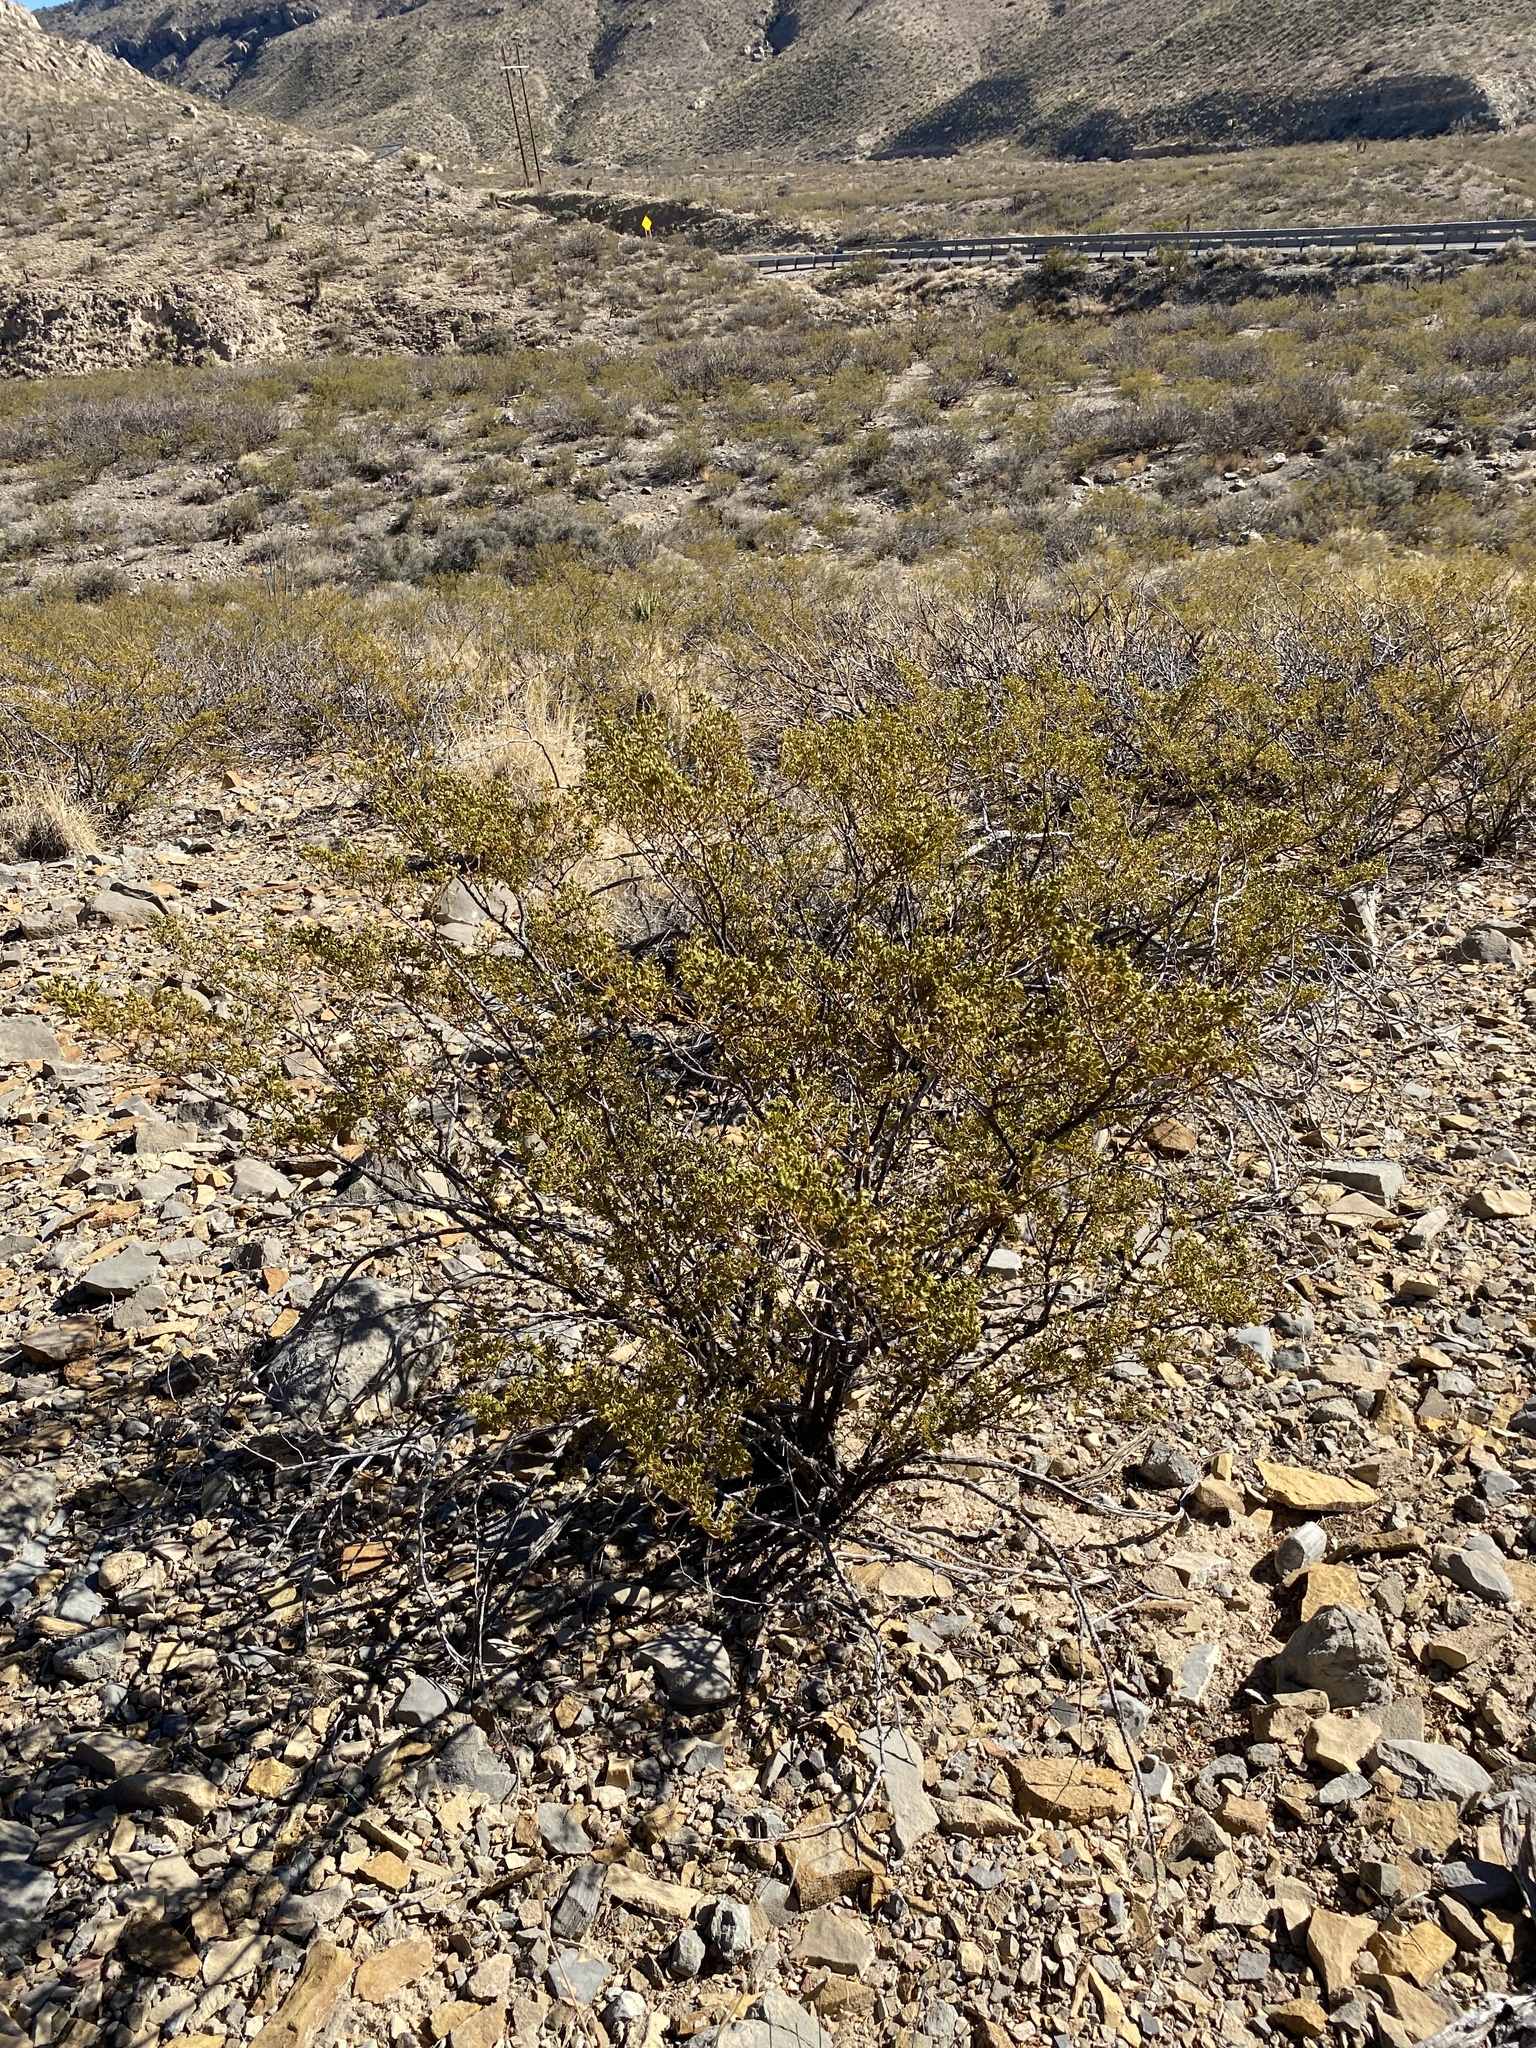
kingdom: Plantae
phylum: Tracheophyta
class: Magnoliopsida
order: Zygophyllales
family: Zygophyllaceae
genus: Larrea
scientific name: Larrea tridentata
